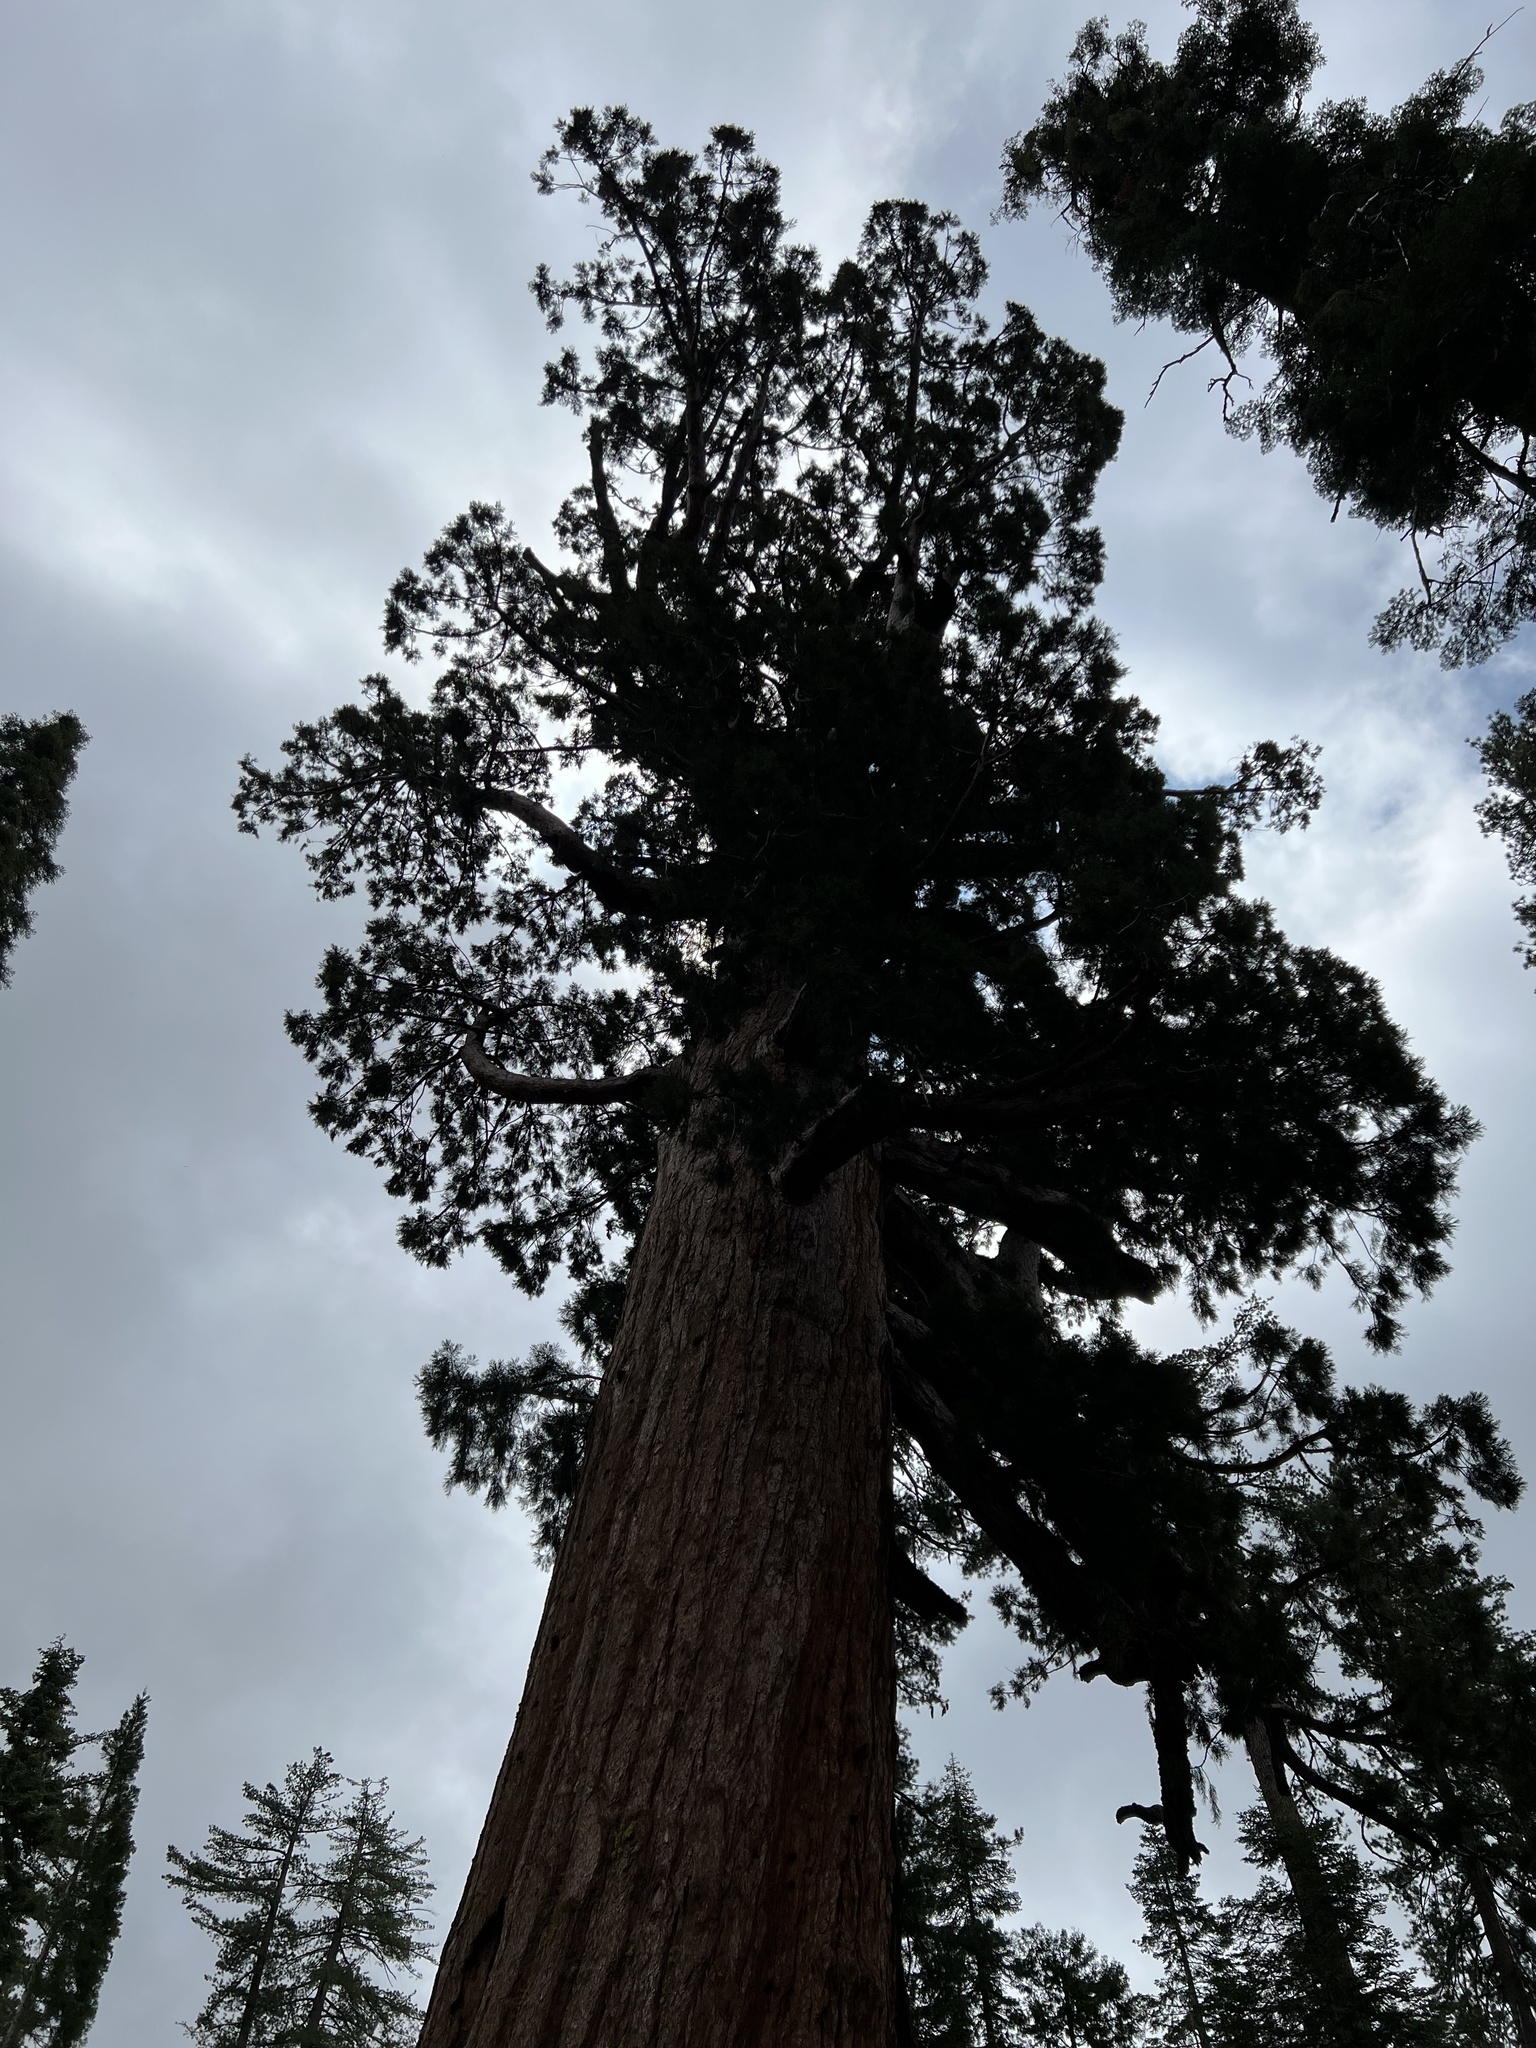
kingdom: Plantae
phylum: Tracheophyta
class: Pinopsida
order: Pinales
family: Cupressaceae
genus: Sequoiadendron
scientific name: Sequoiadendron giganteum
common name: Wellingtonia
